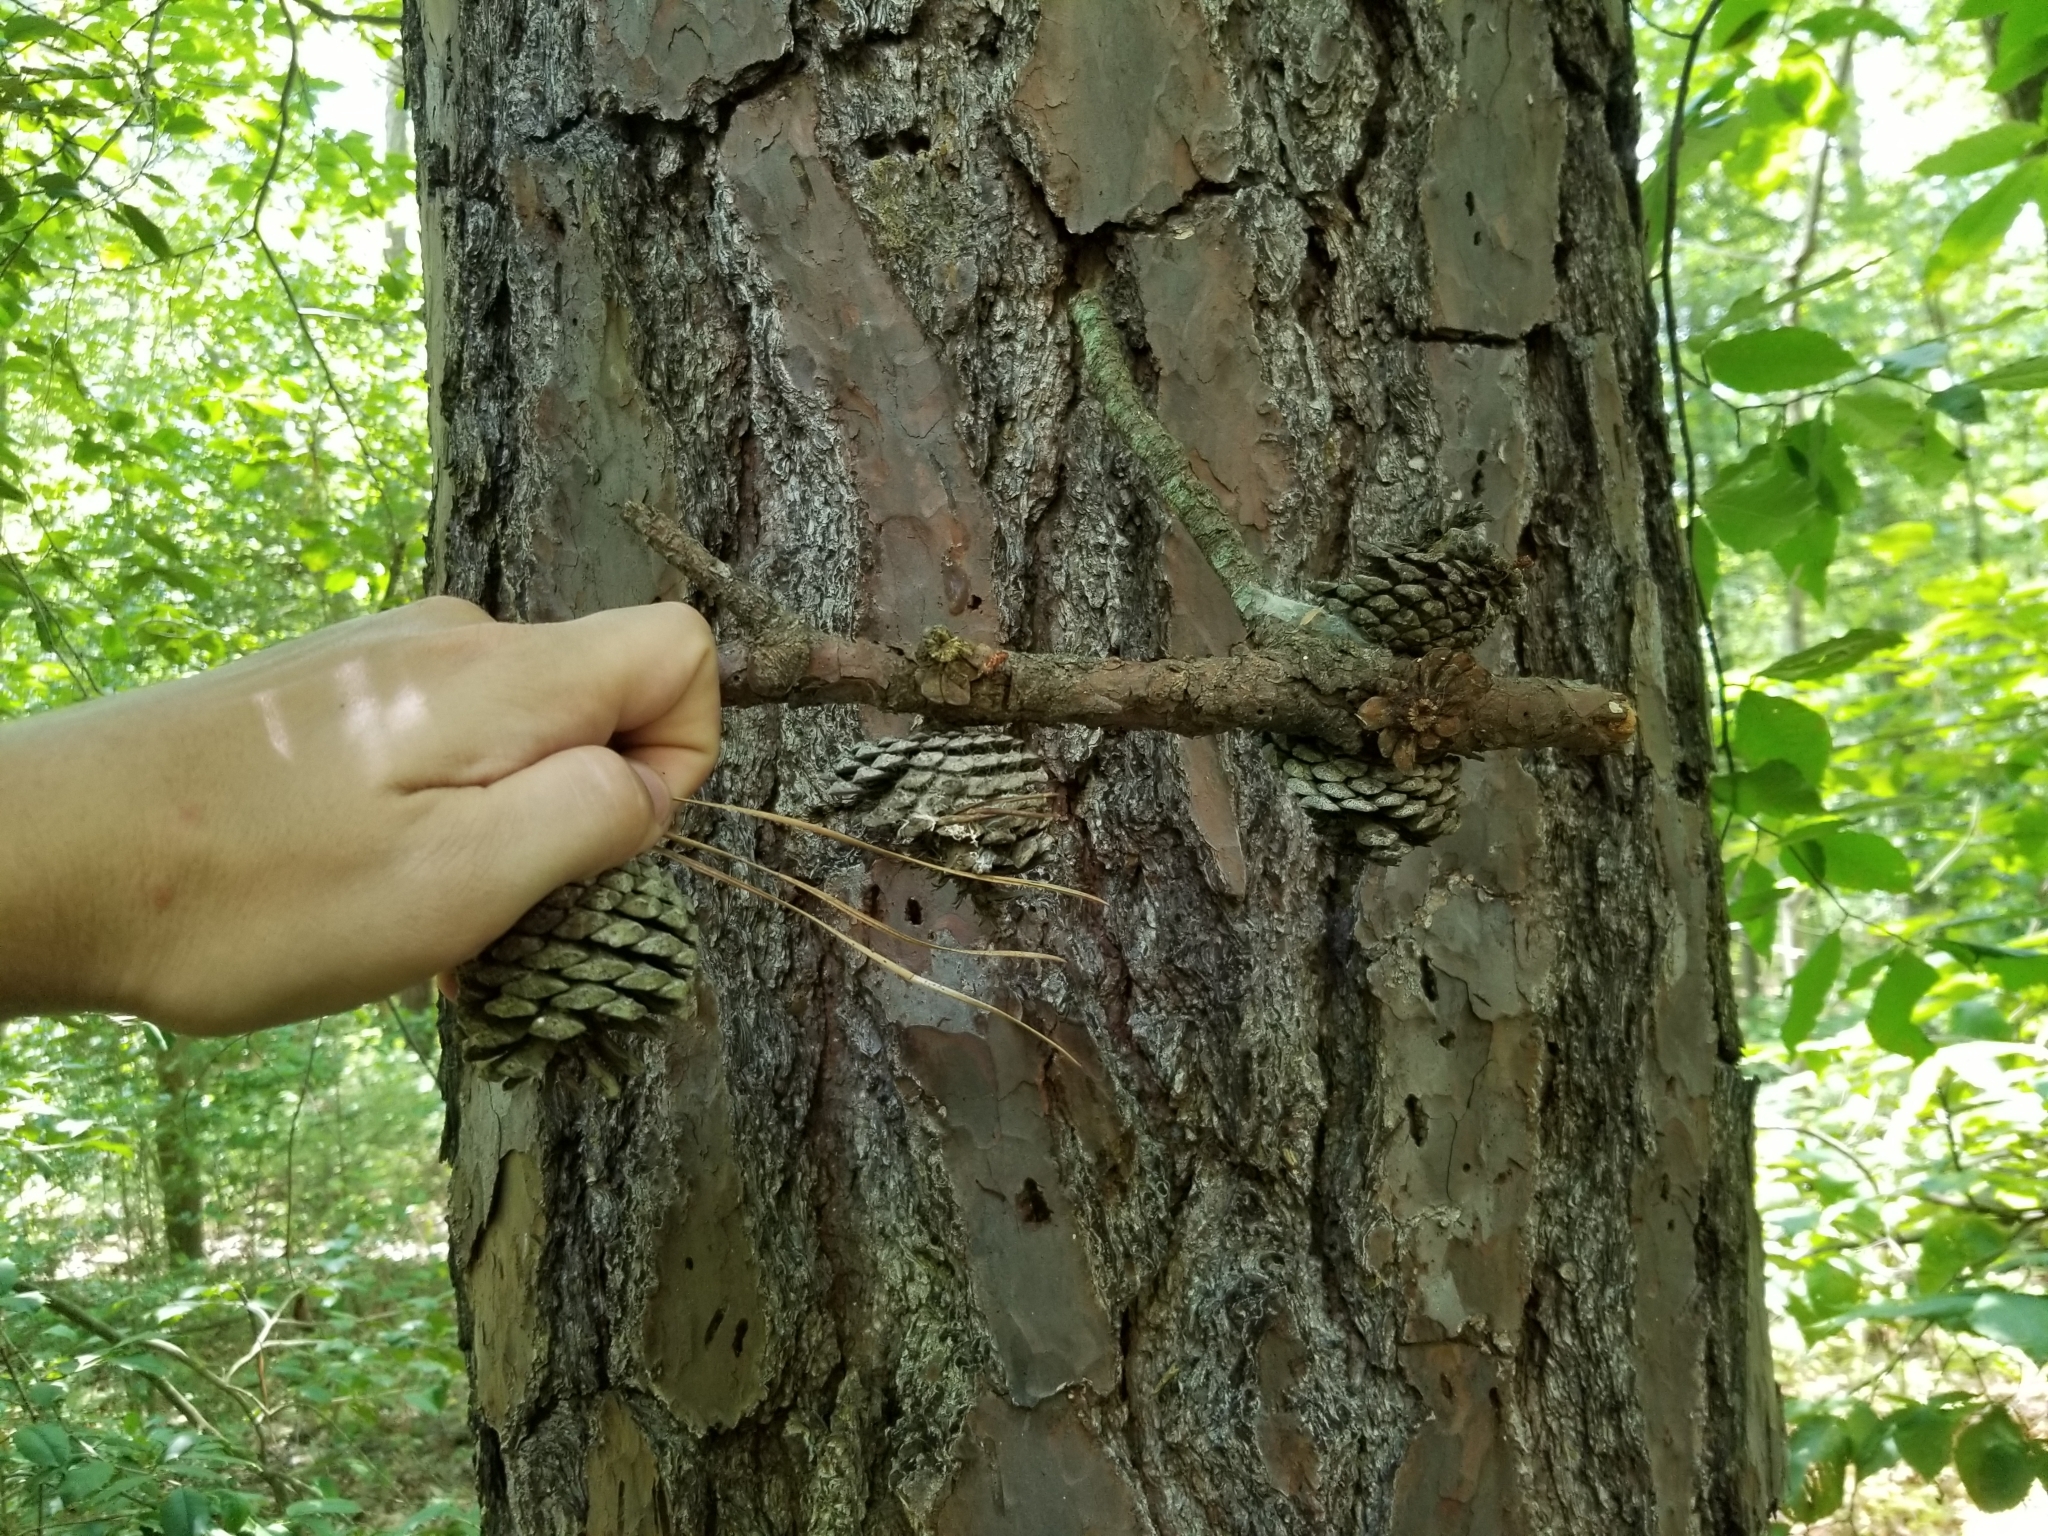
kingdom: Plantae
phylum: Tracheophyta
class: Pinopsida
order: Pinales
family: Pinaceae
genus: Pinus
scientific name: Pinus rigida
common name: Pitch pine
